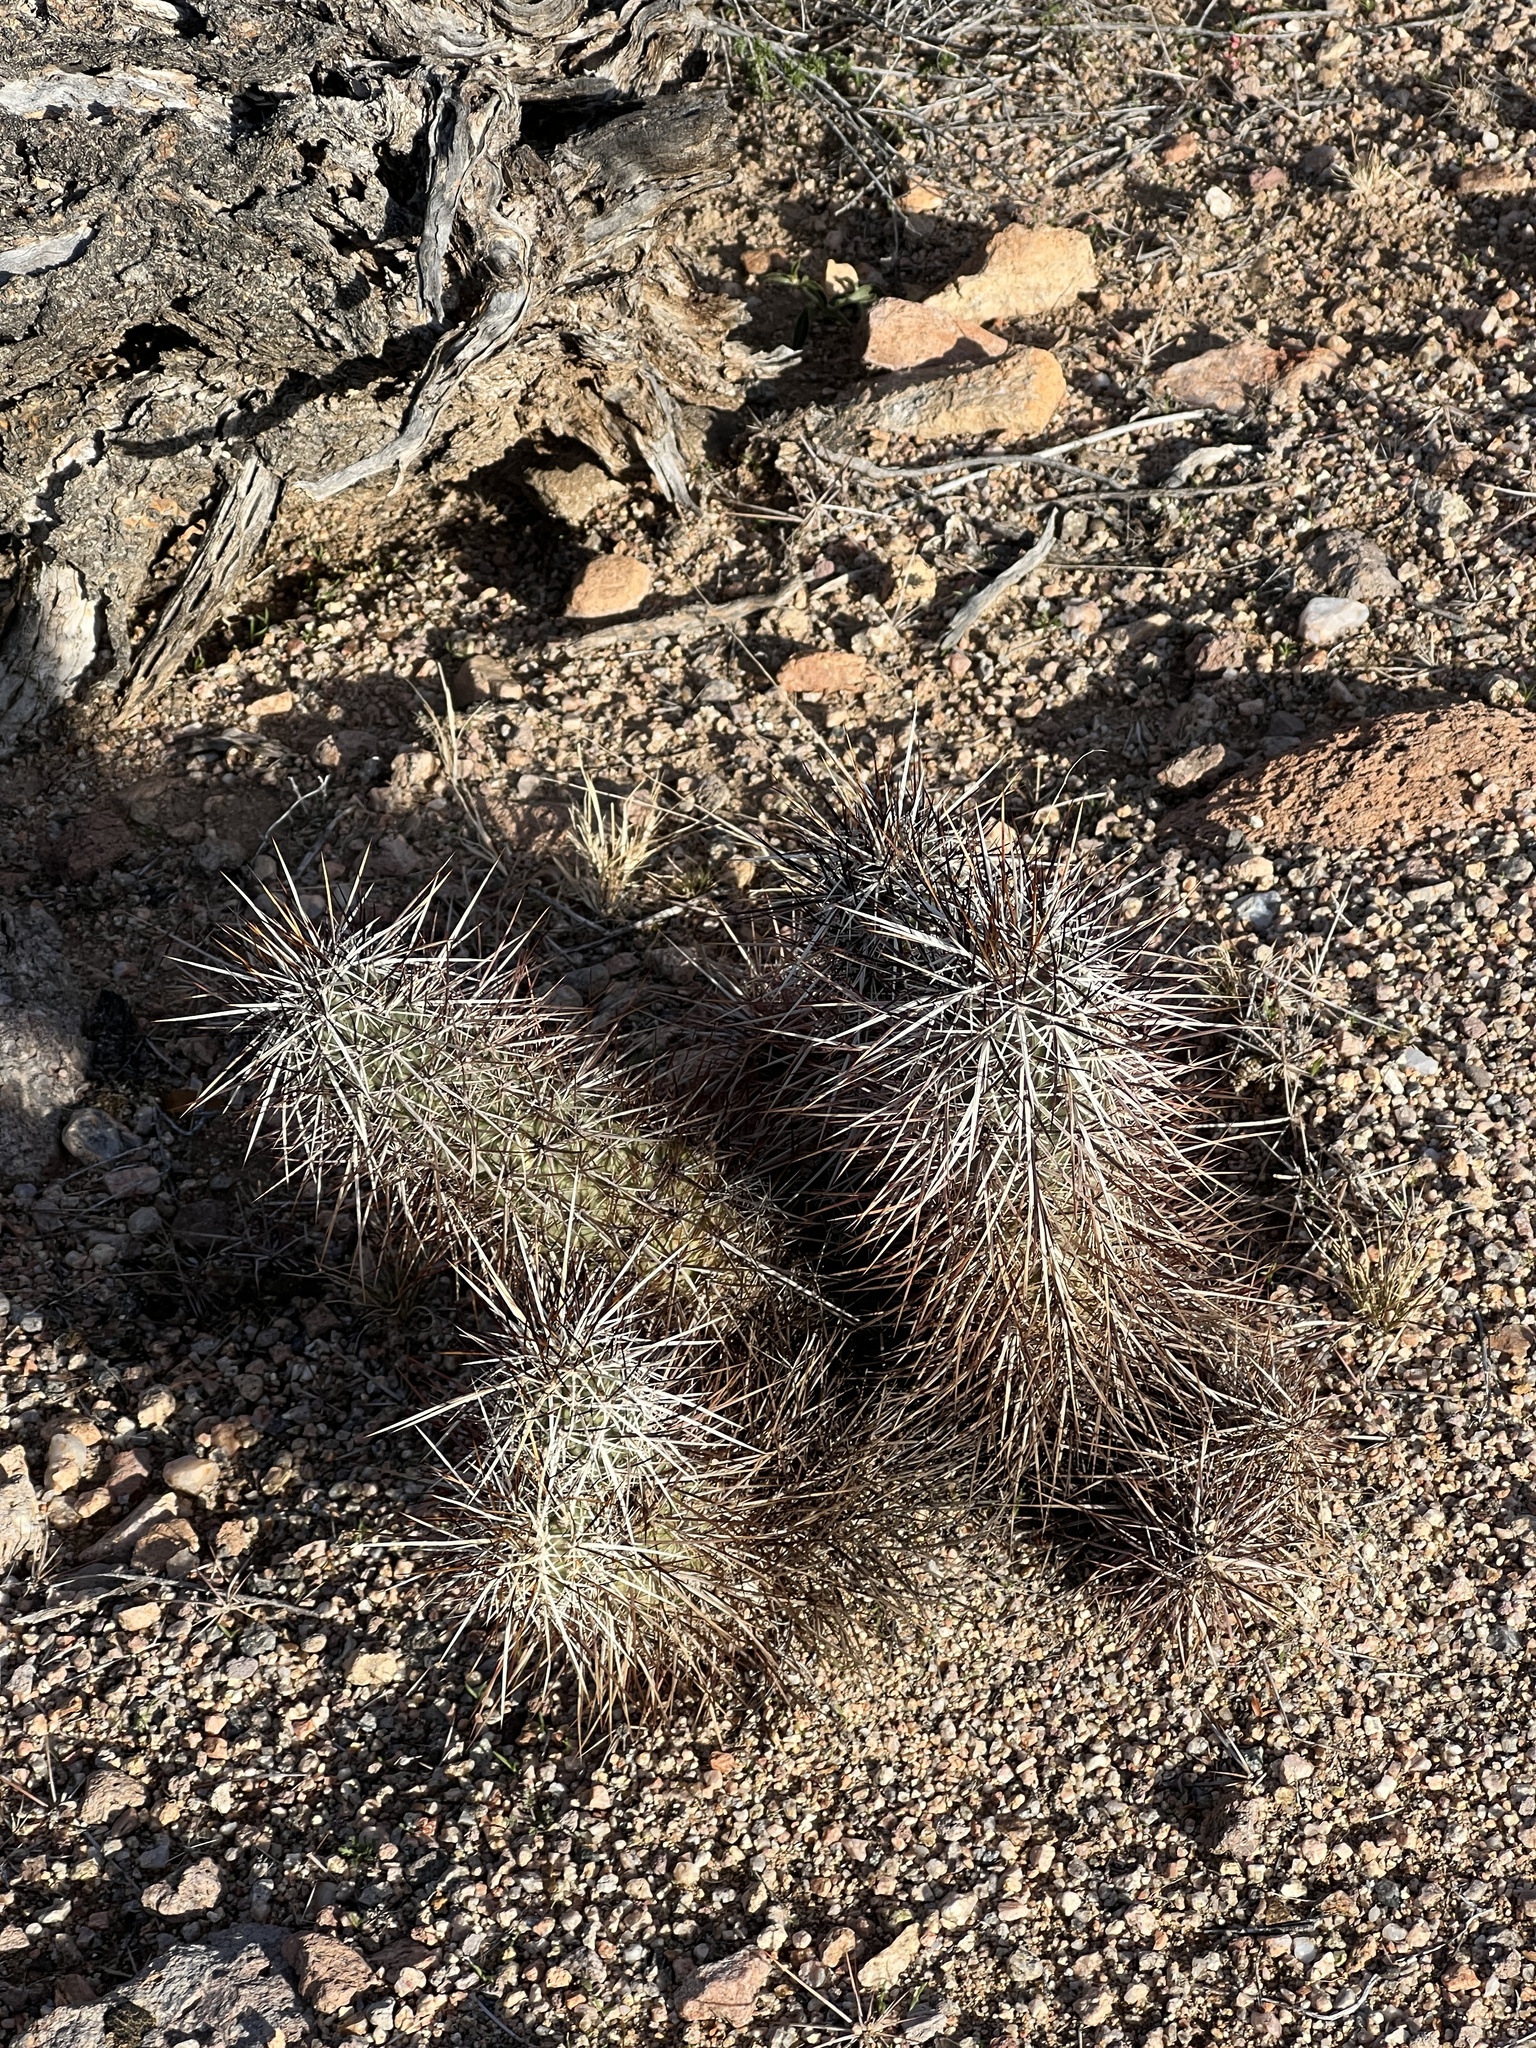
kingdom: Plantae
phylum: Tracheophyta
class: Magnoliopsida
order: Caryophyllales
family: Cactaceae
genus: Echinocereus
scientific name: Echinocereus engelmannii
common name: Engelmann's hedgehog cactus
